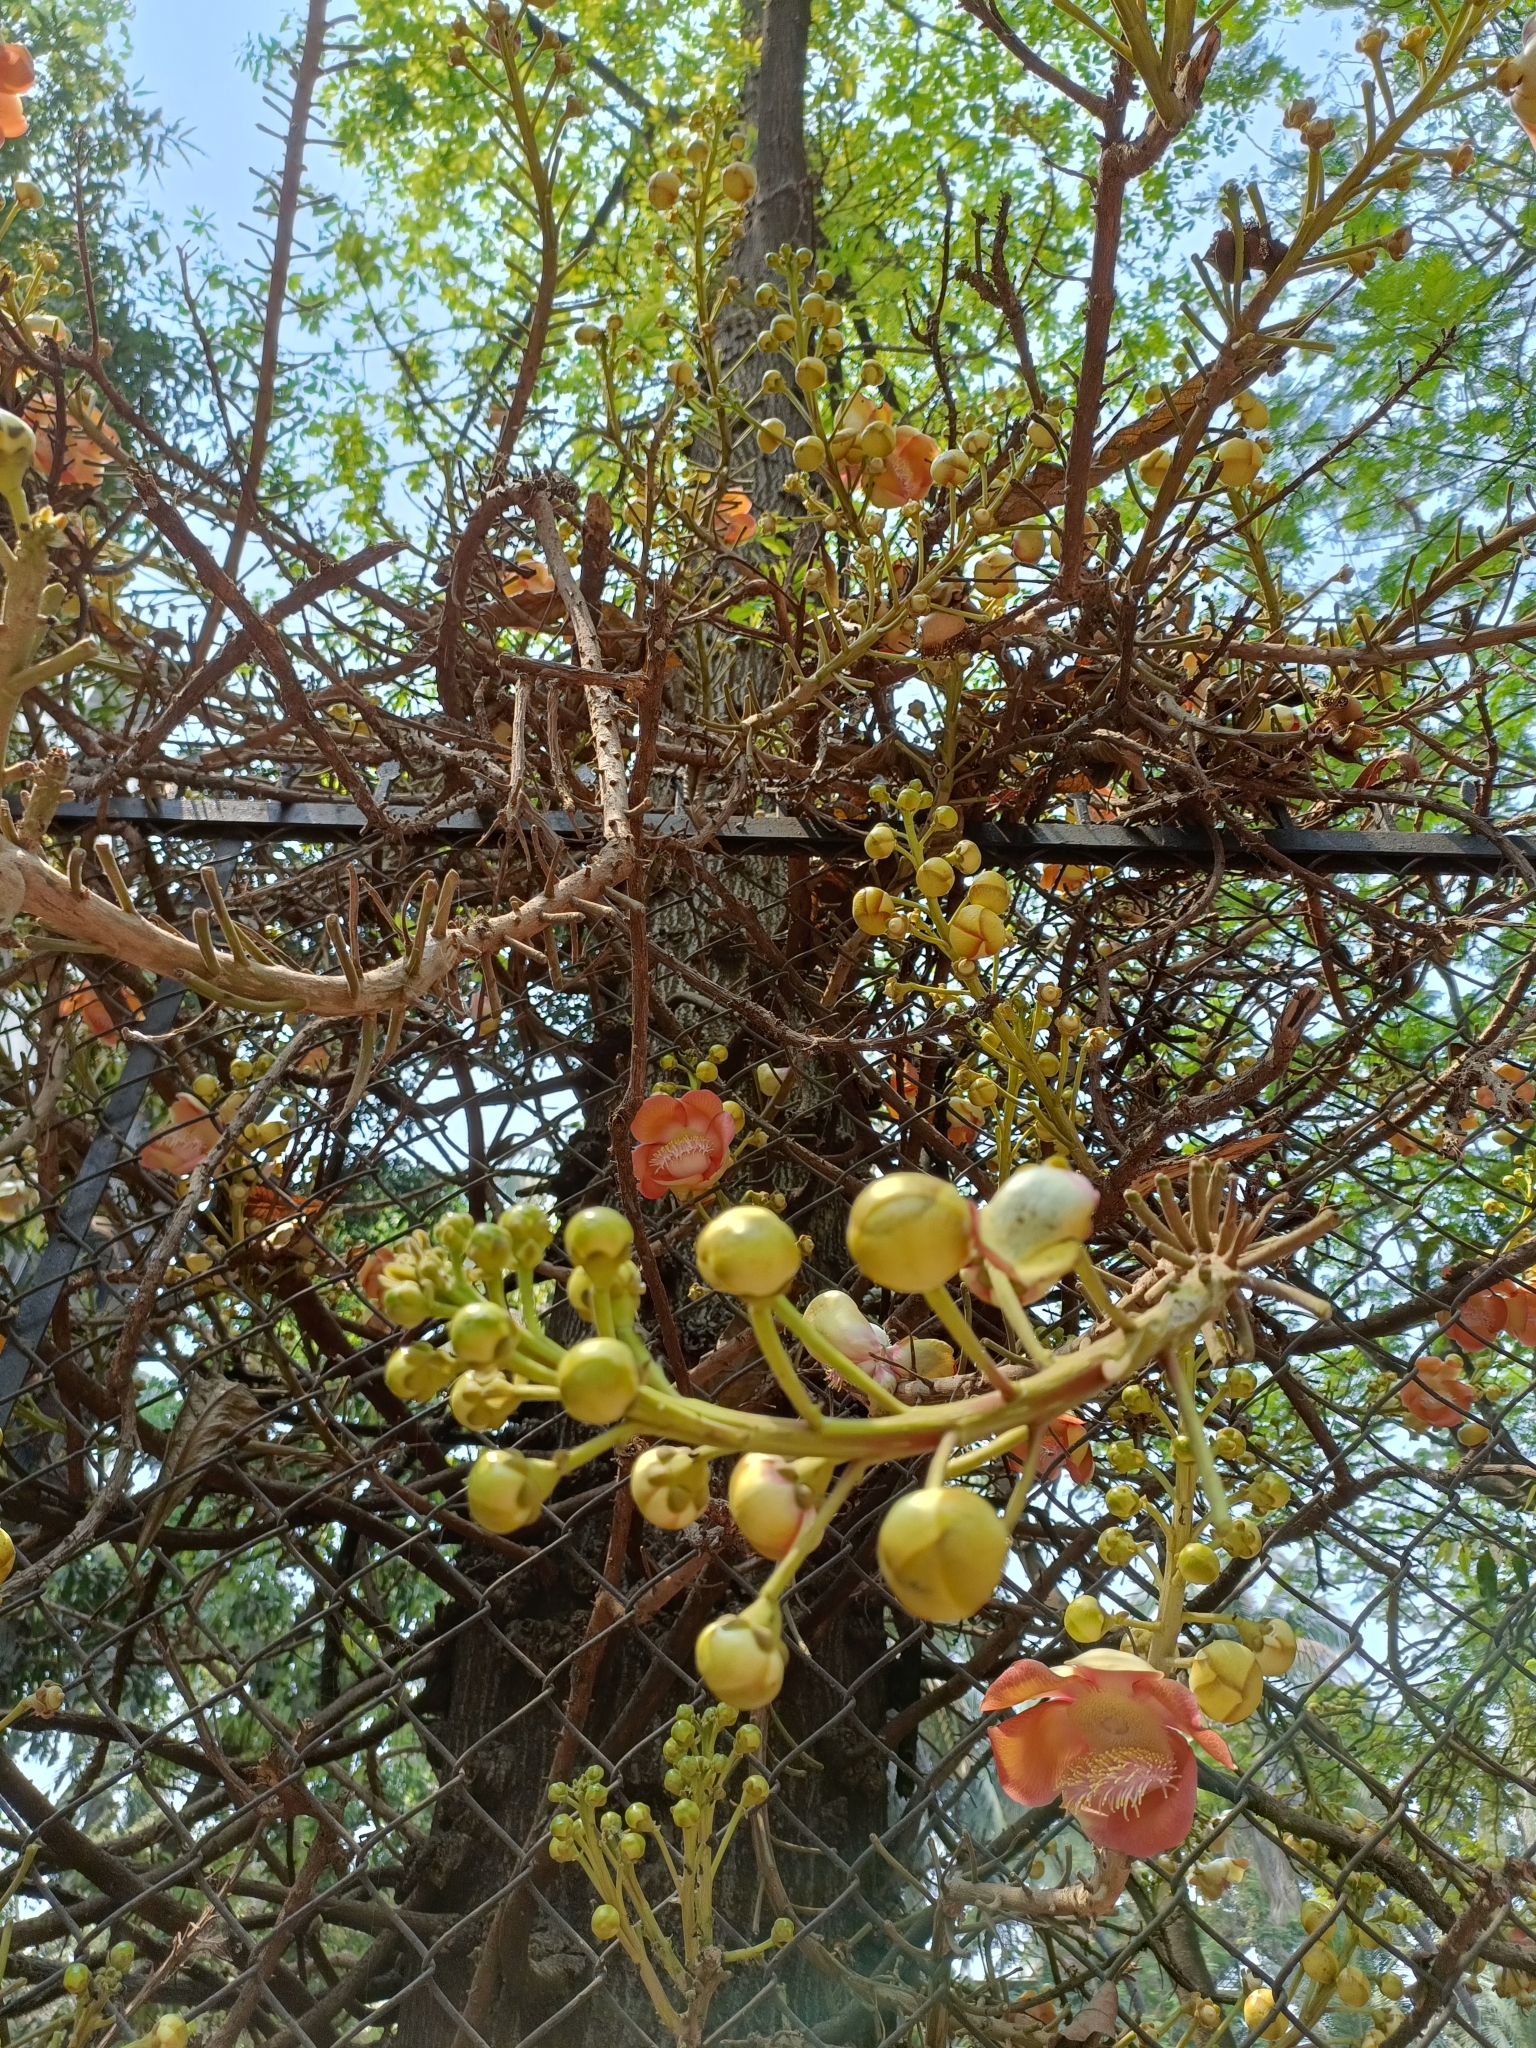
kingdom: Plantae
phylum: Tracheophyta
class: Magnoliopsida
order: Ericales
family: Lecythidaceae
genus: Couroupita
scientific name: Couroupita guianensis
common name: Cannonball tree
